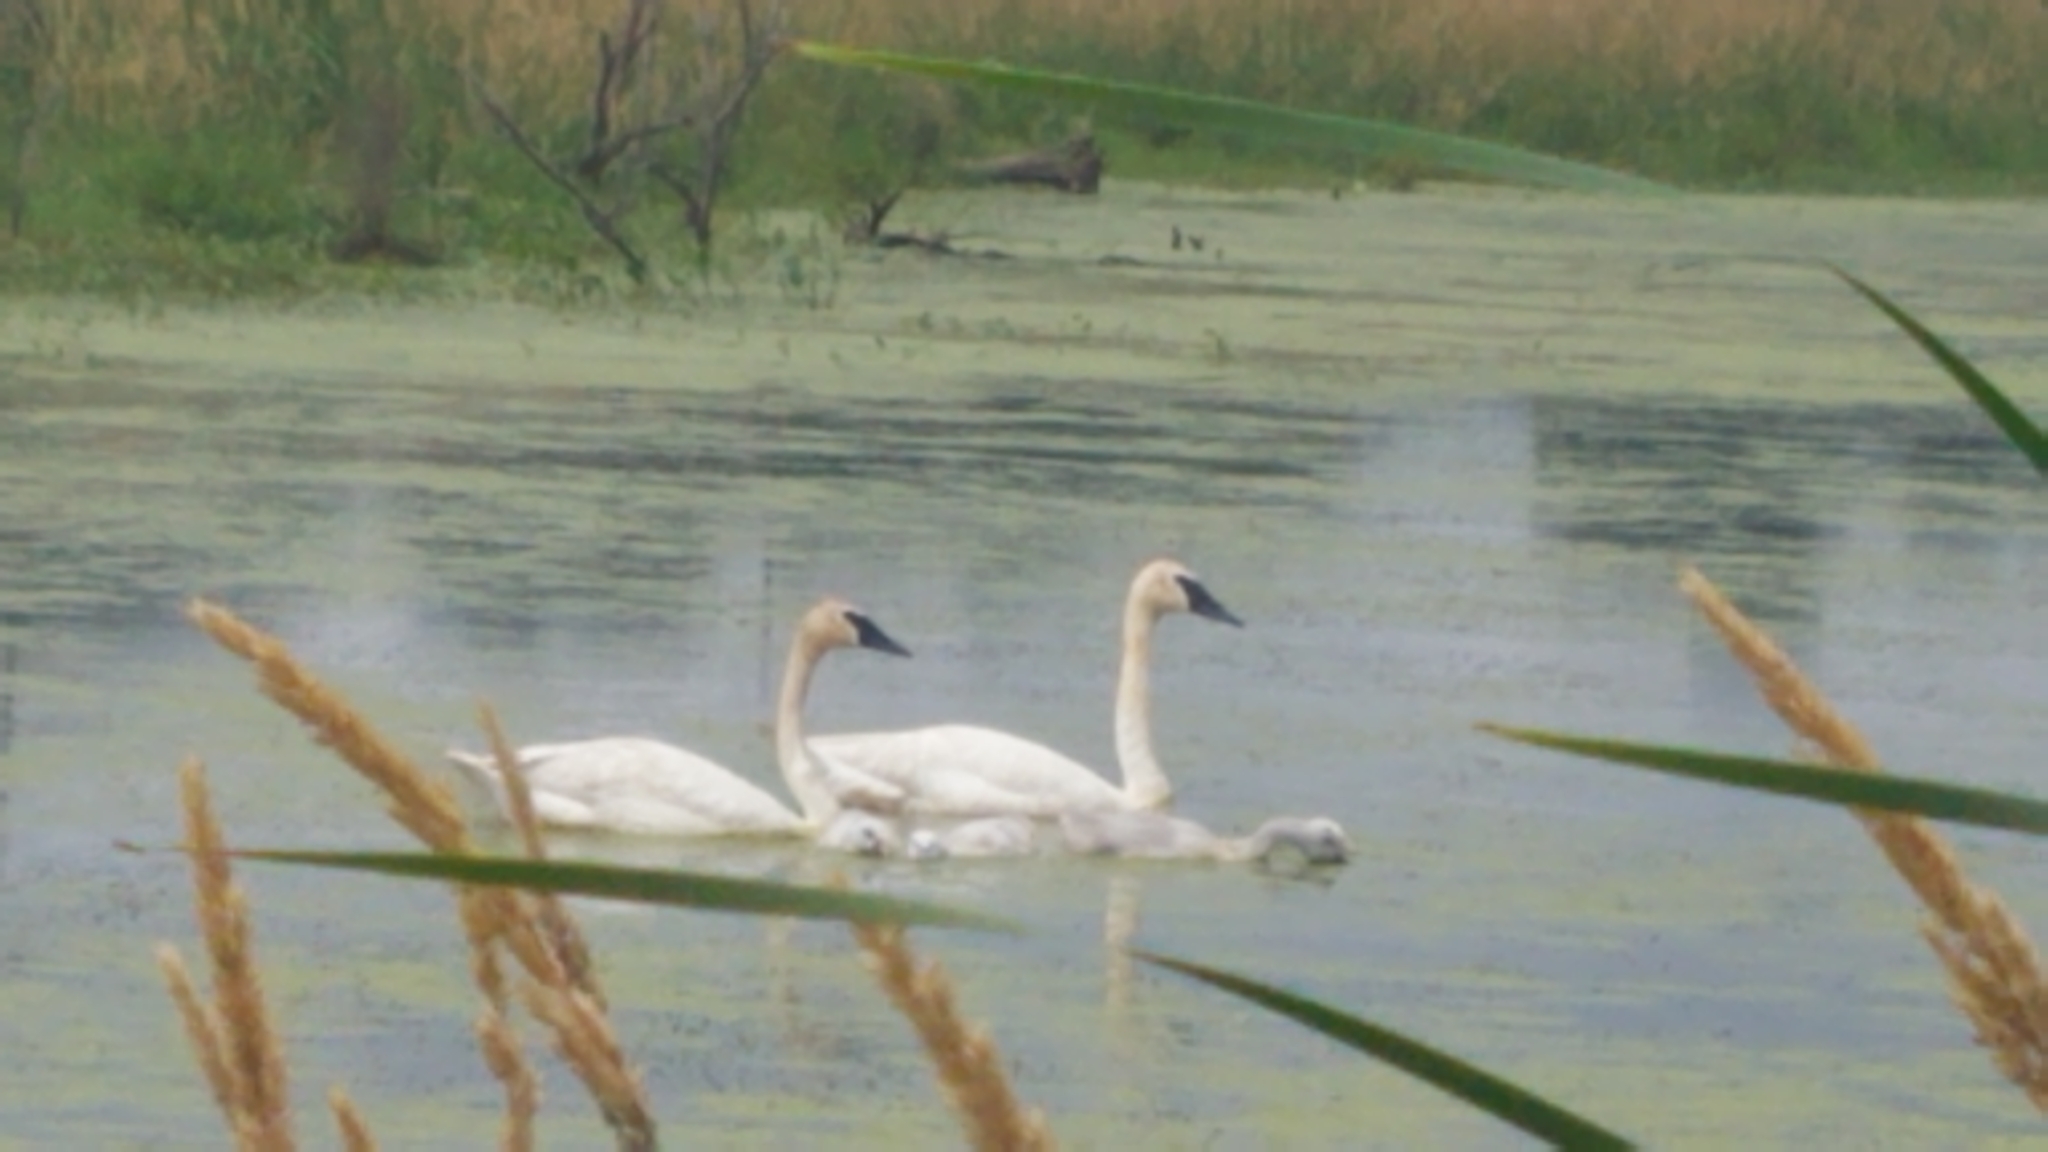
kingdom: Animalia
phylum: Chordata
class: Aves
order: Anseriformes
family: Anatidae
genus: Cygnus
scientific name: Cygnus buccinator
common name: Trumpeter swan
